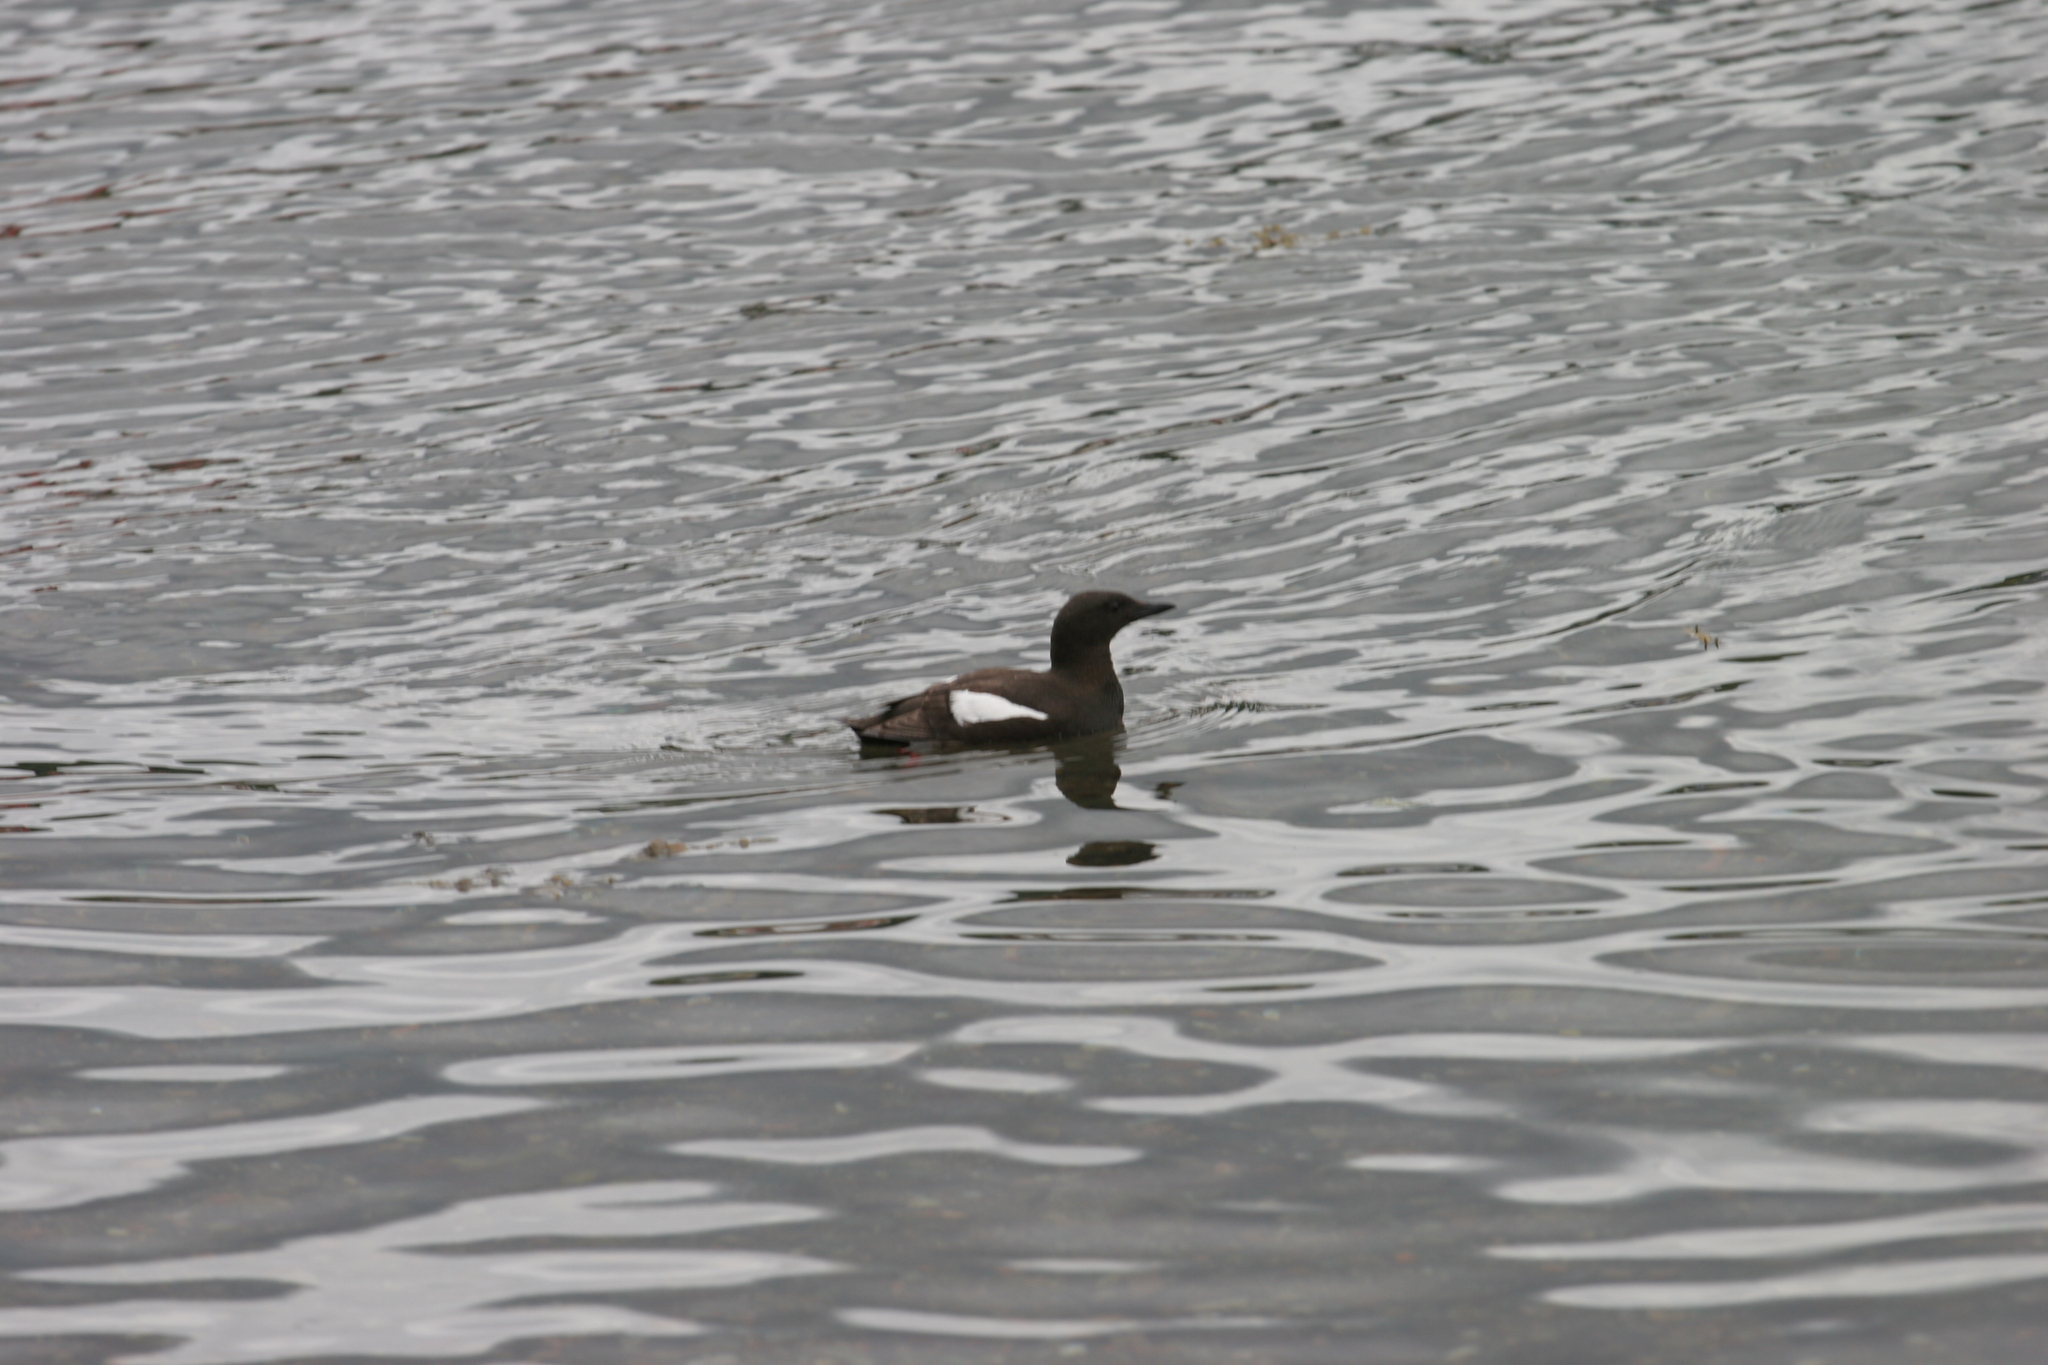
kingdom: Animalia
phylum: Chordata
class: Aves
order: Charadriiformes
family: Alcidae
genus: Cepphus
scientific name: Cepphus grylle
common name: Black guillemot
